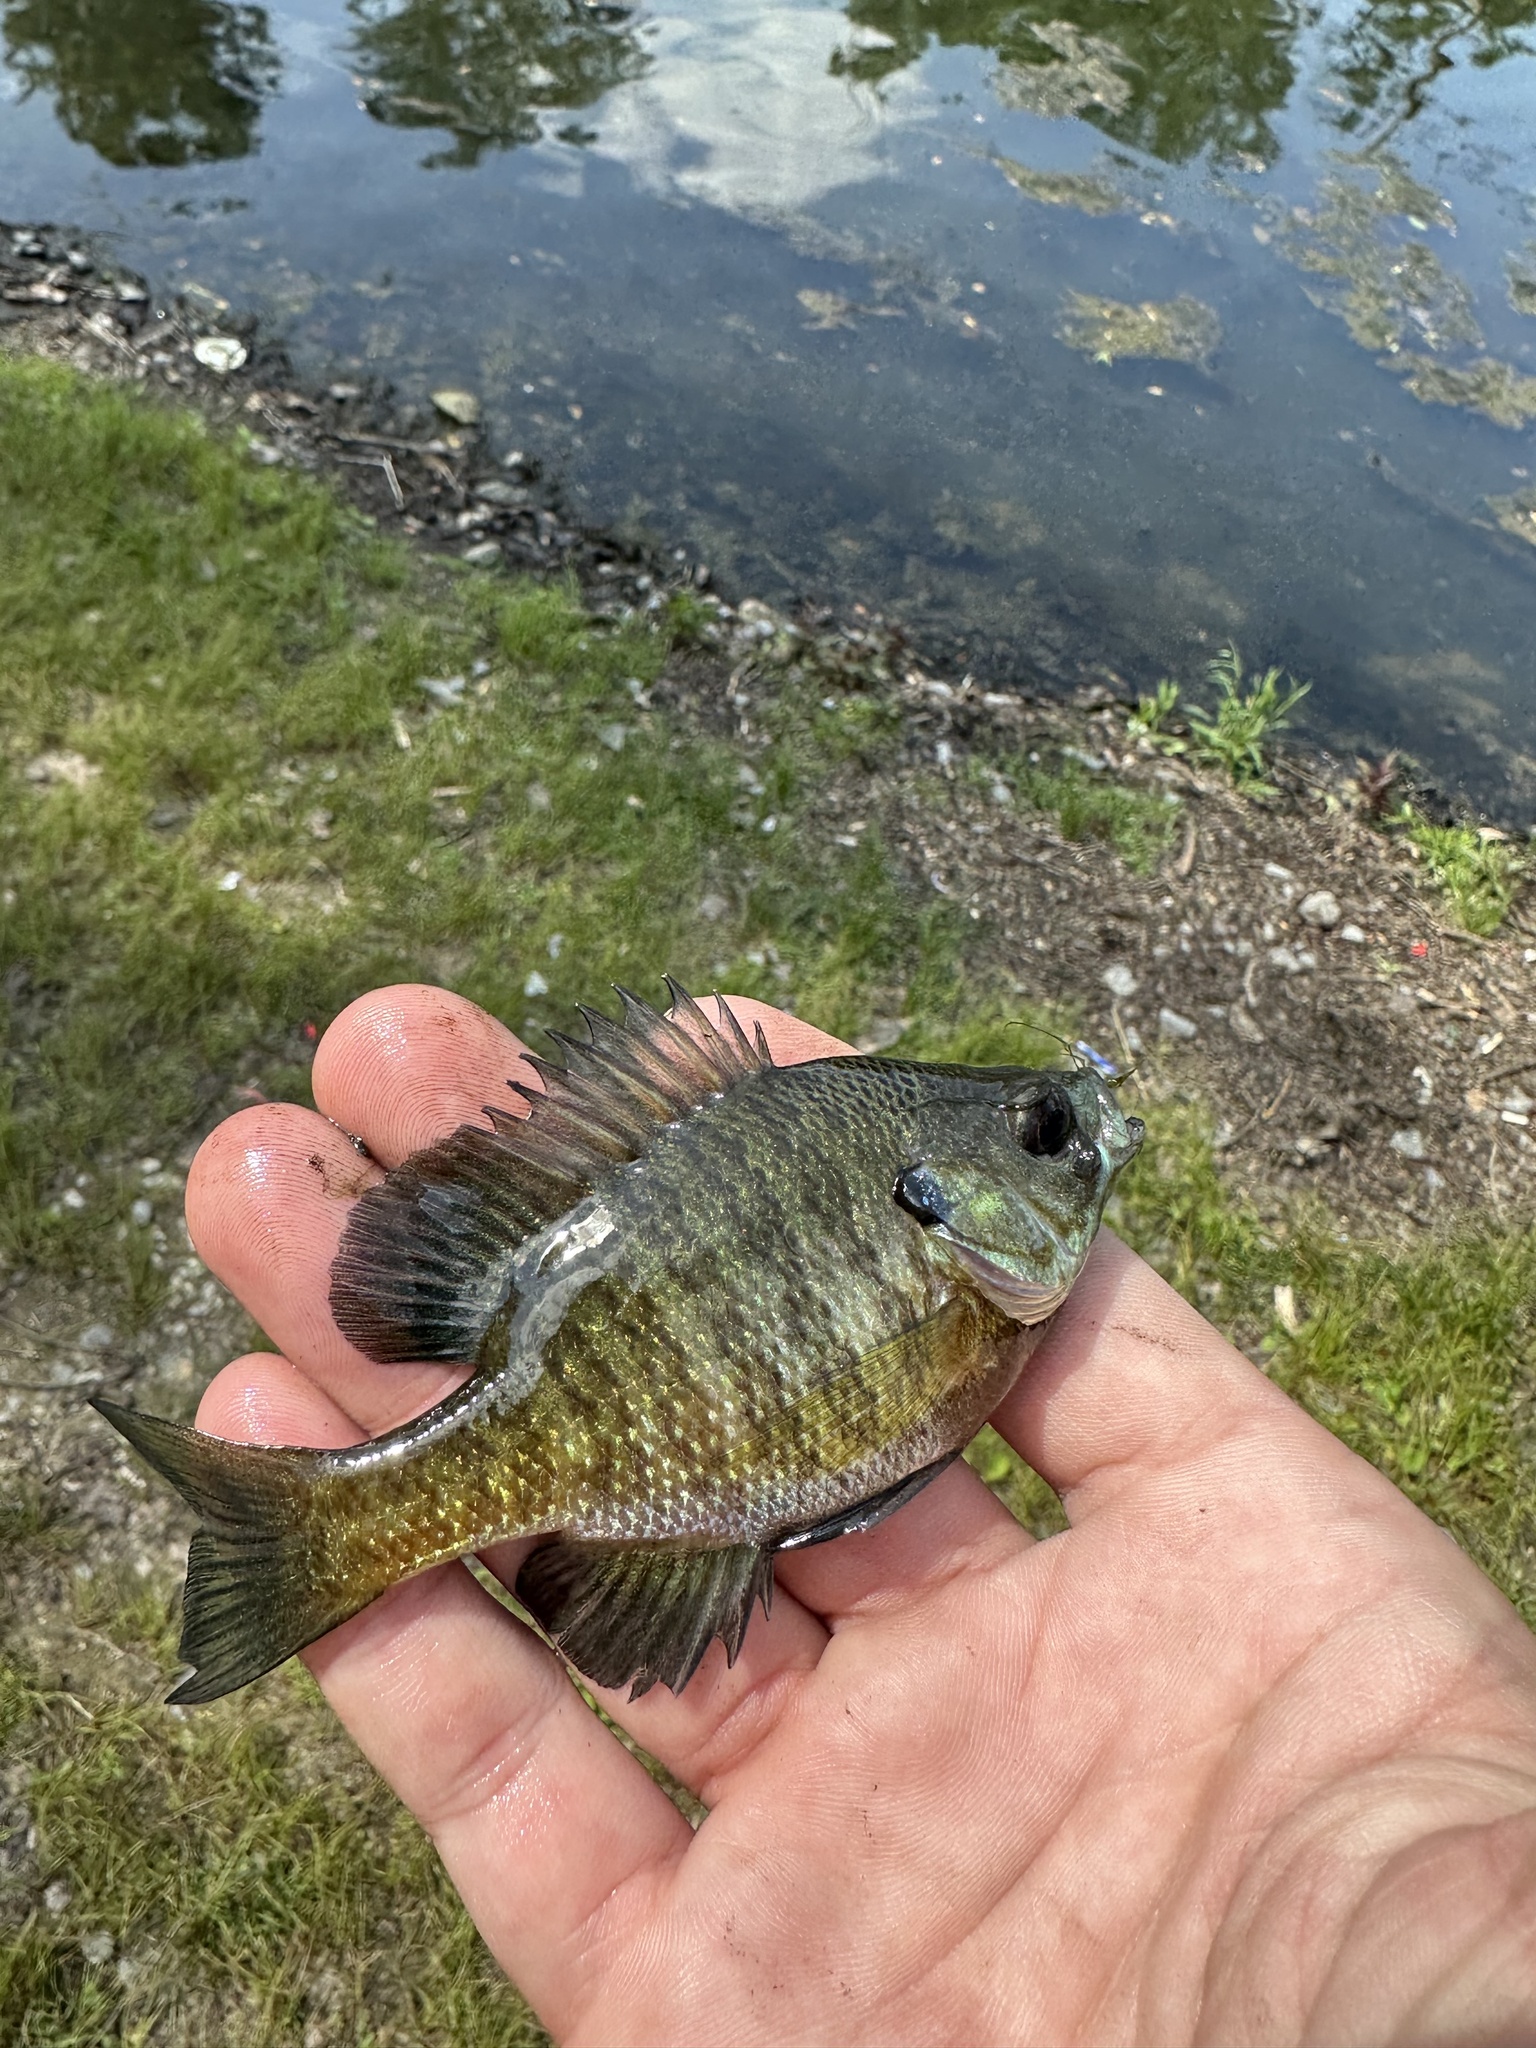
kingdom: Animalia
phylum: Chordata
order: Perciformes
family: Centrarchidae
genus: Lepomis
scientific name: Lepomis macrochirus
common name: Bluegill
